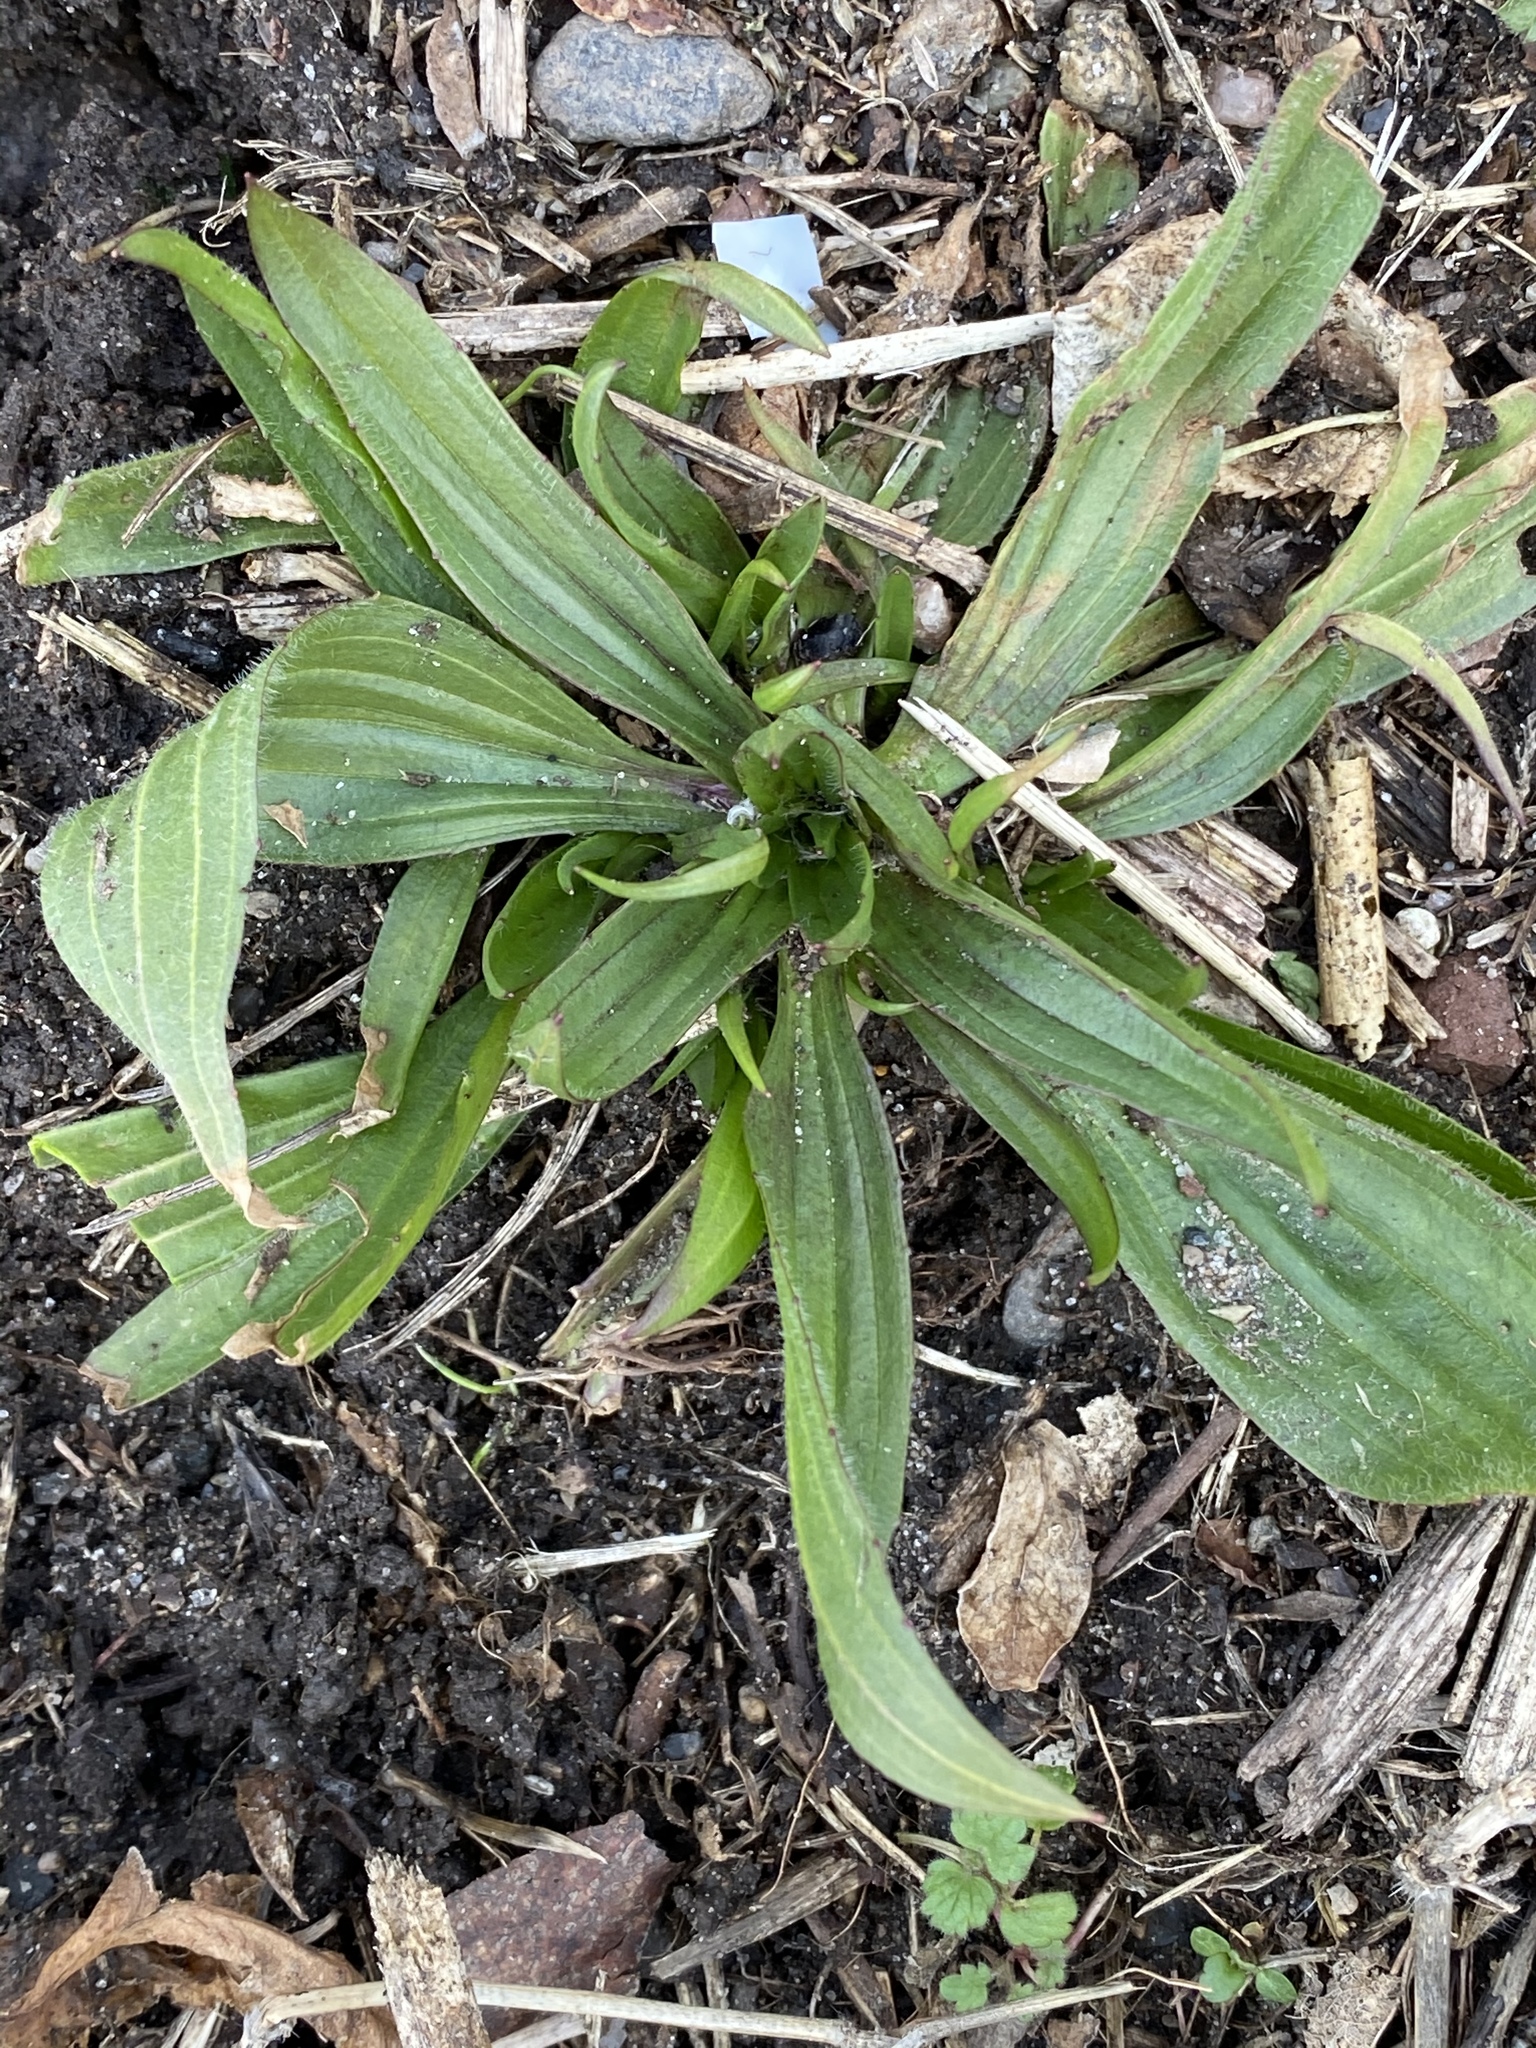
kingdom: Plantae
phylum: Tracheophyta
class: Magnoliopsida
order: Lamiales
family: Plantaginaceae
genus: Plantago
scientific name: Plantago lanceolata
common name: Ribwort plantain
